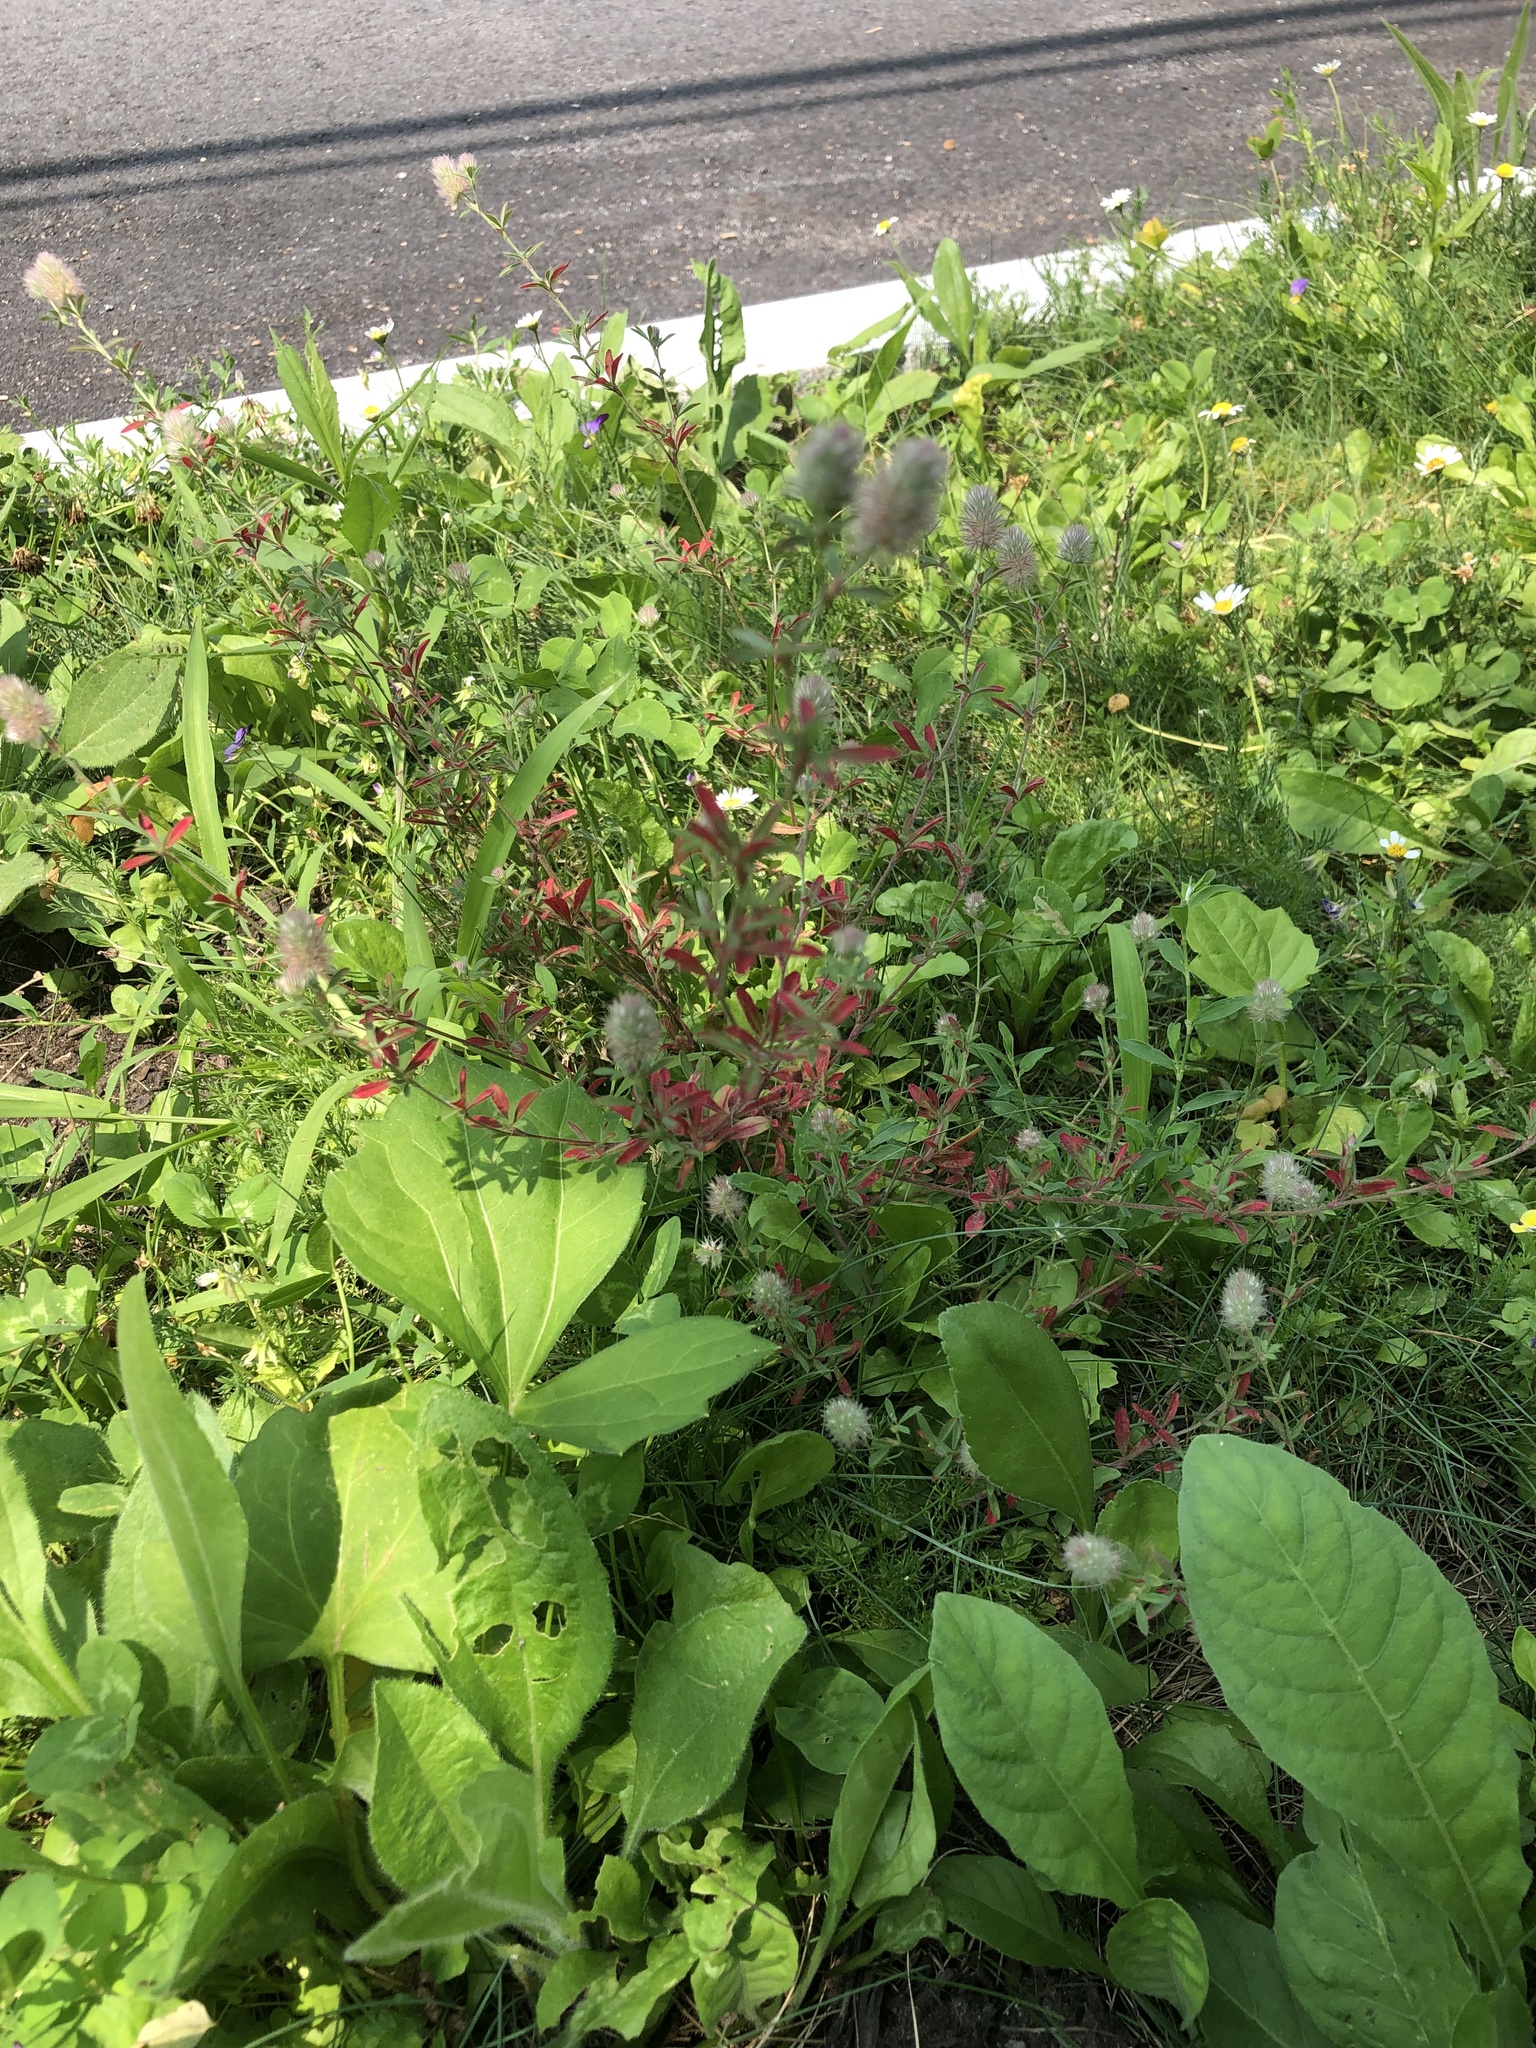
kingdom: Plantae
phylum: Tracheophyta
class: Magnoliopsida
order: Fabales
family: Fabaceae
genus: Trifolium
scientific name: Trifolium arvense
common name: Hare's-foot clover
